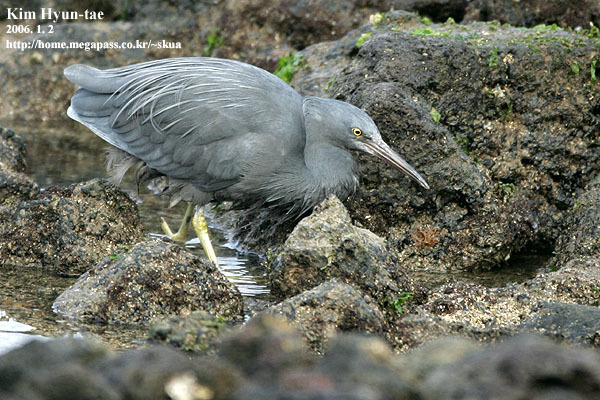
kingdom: Animalia
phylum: Chordata
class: Aves
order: Pelecaniformes
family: Ardeidae
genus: Egretta
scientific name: Egretta sacra
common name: Pacific reef heron
